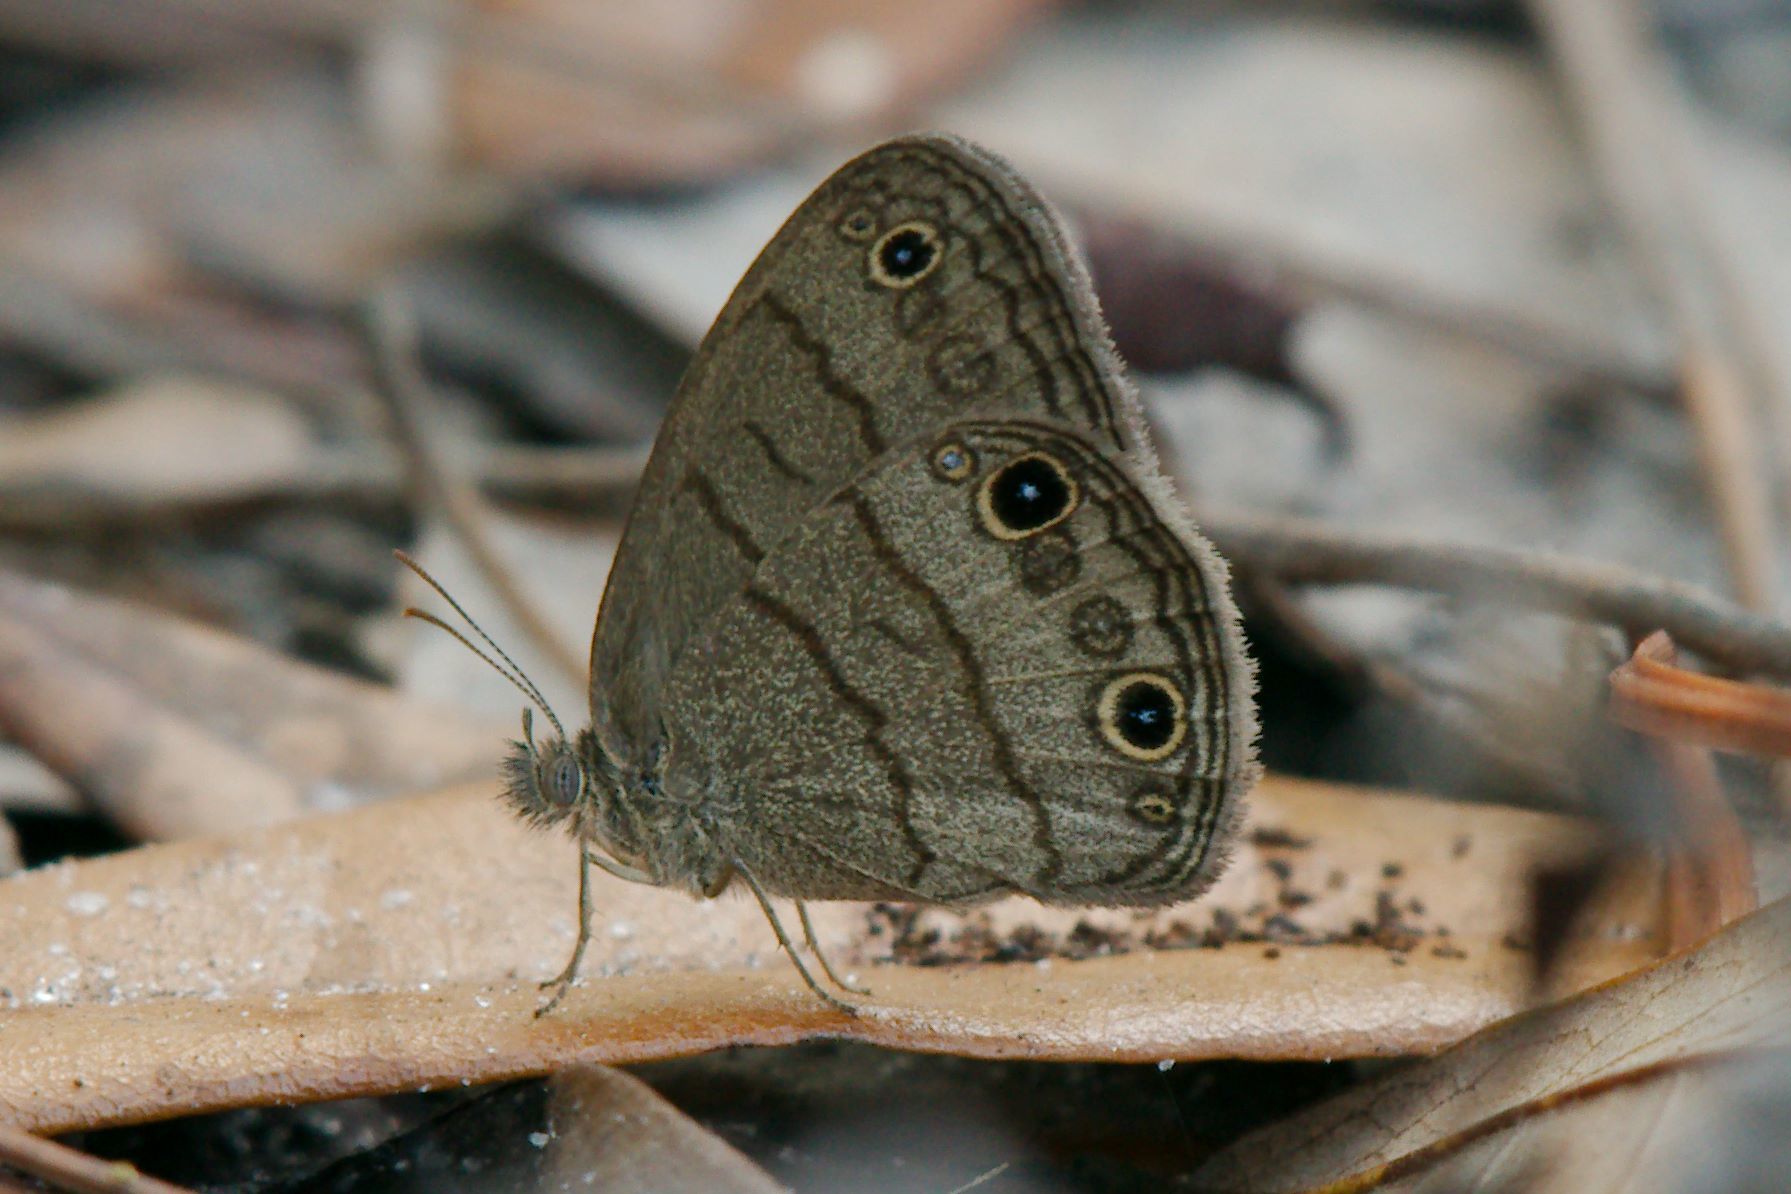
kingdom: Animalia
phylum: Arthropoda
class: Insecta
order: Lepidoptera
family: Nymphalidae
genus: Hermeuptychia
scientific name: Hermeuptychia hermes
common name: Hermes satyr
